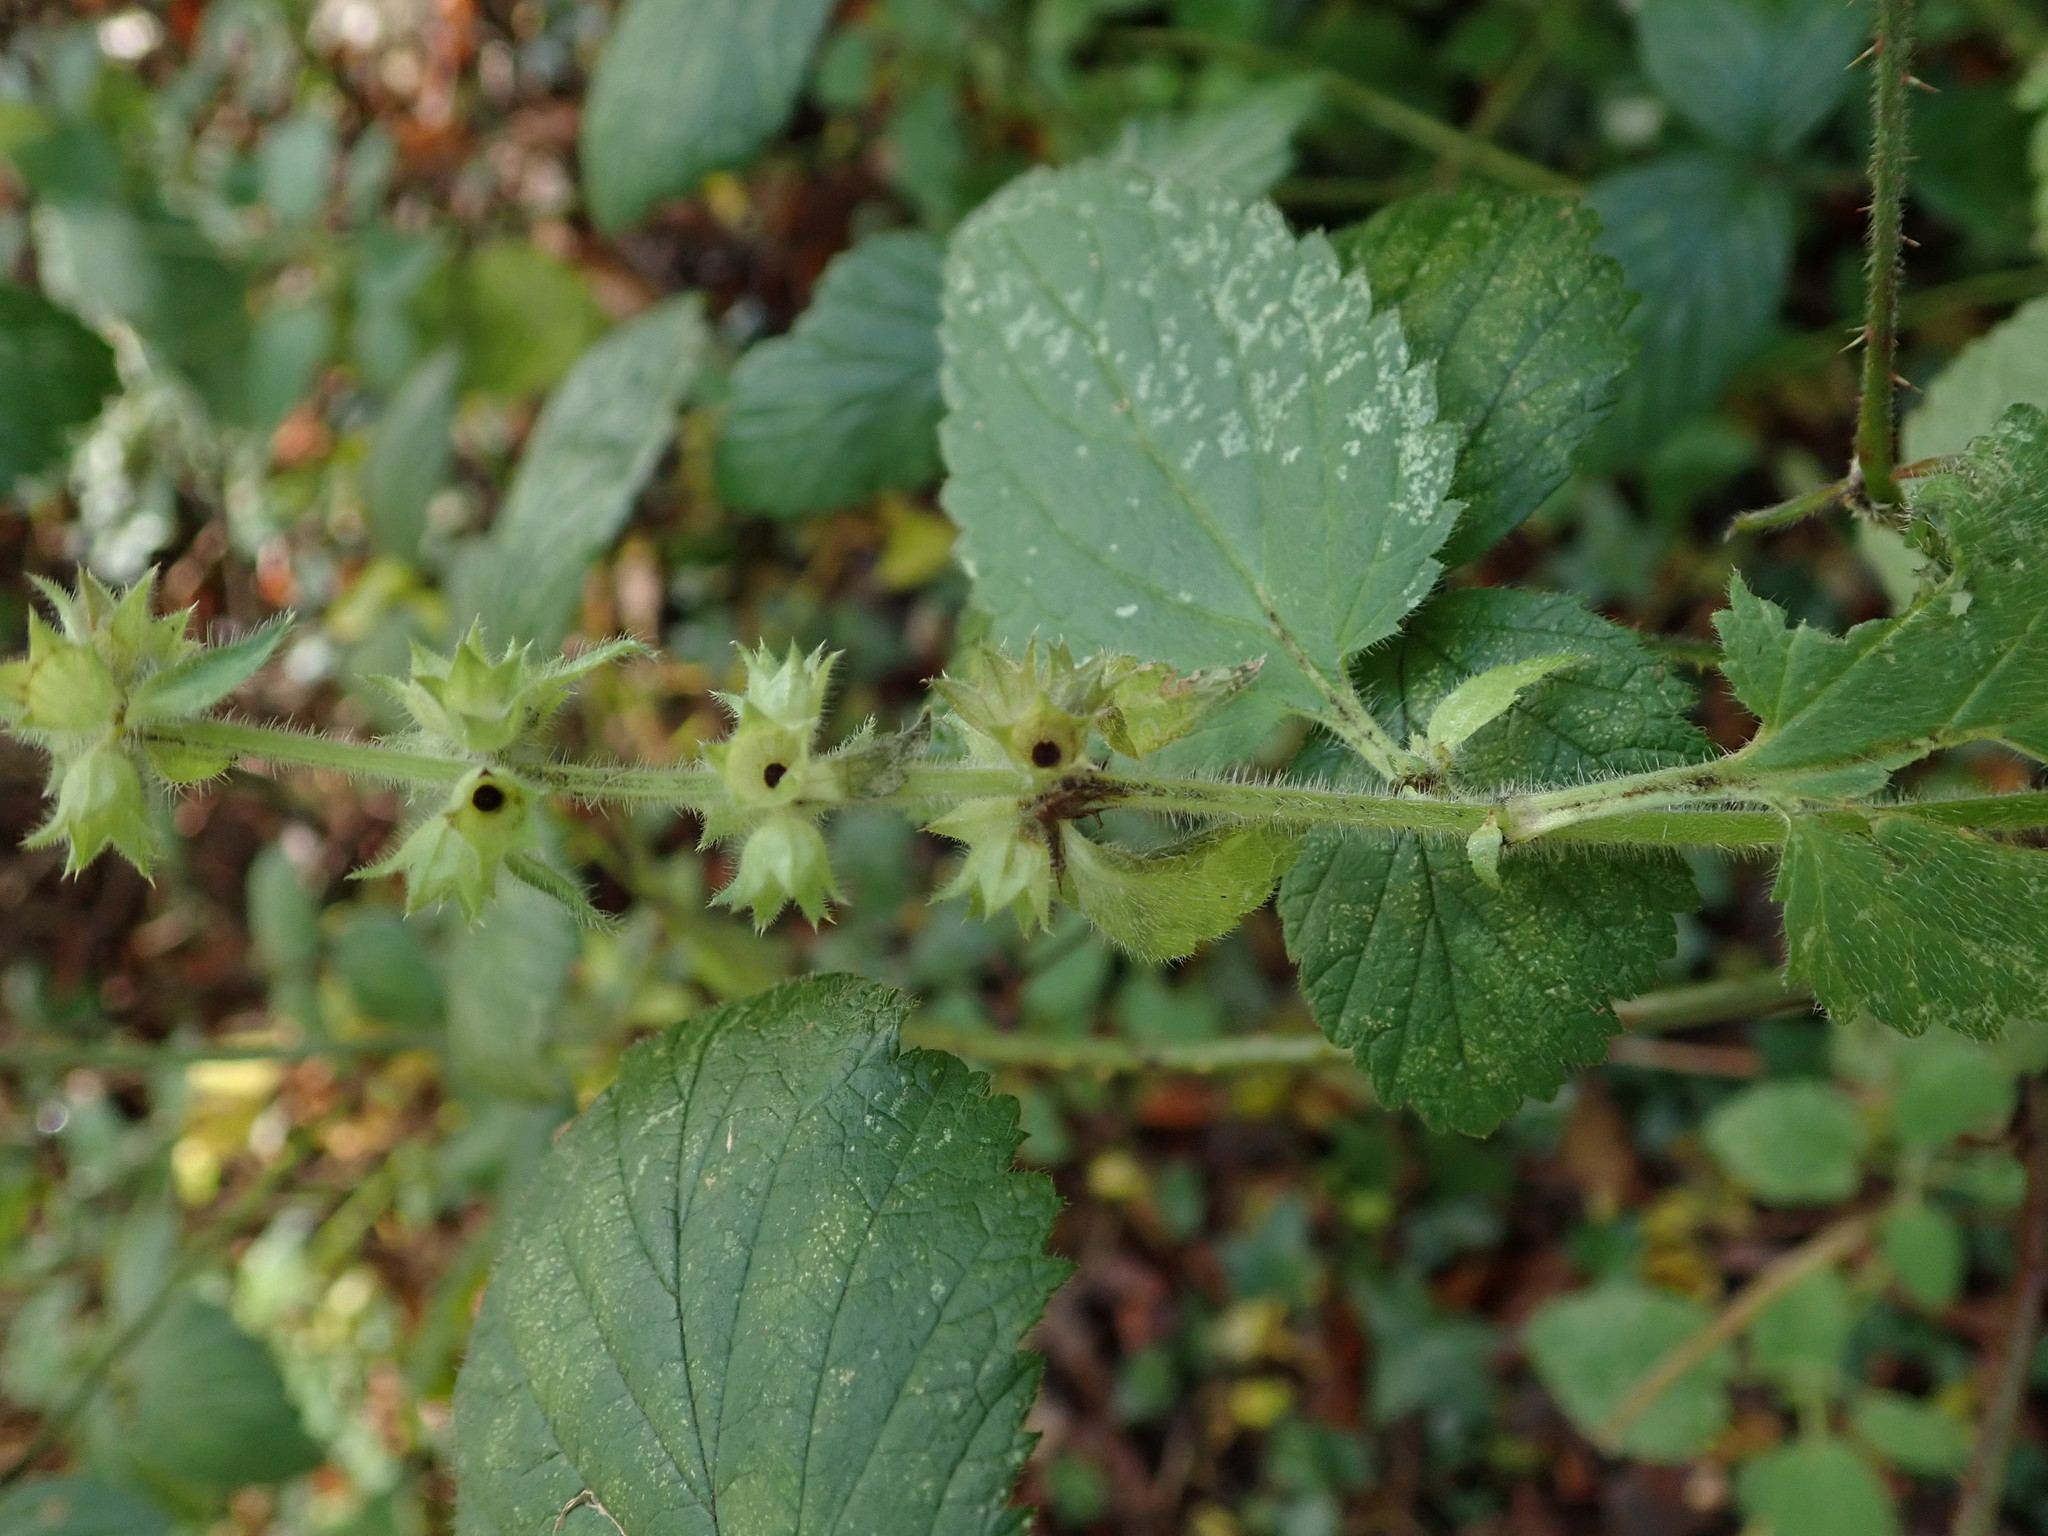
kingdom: Plantae
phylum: Tracheophyta
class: Magnoliopsida
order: Lamiales
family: Lamiaceae
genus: Stachys
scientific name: Stachys sylvatica
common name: Hedge woundwort
